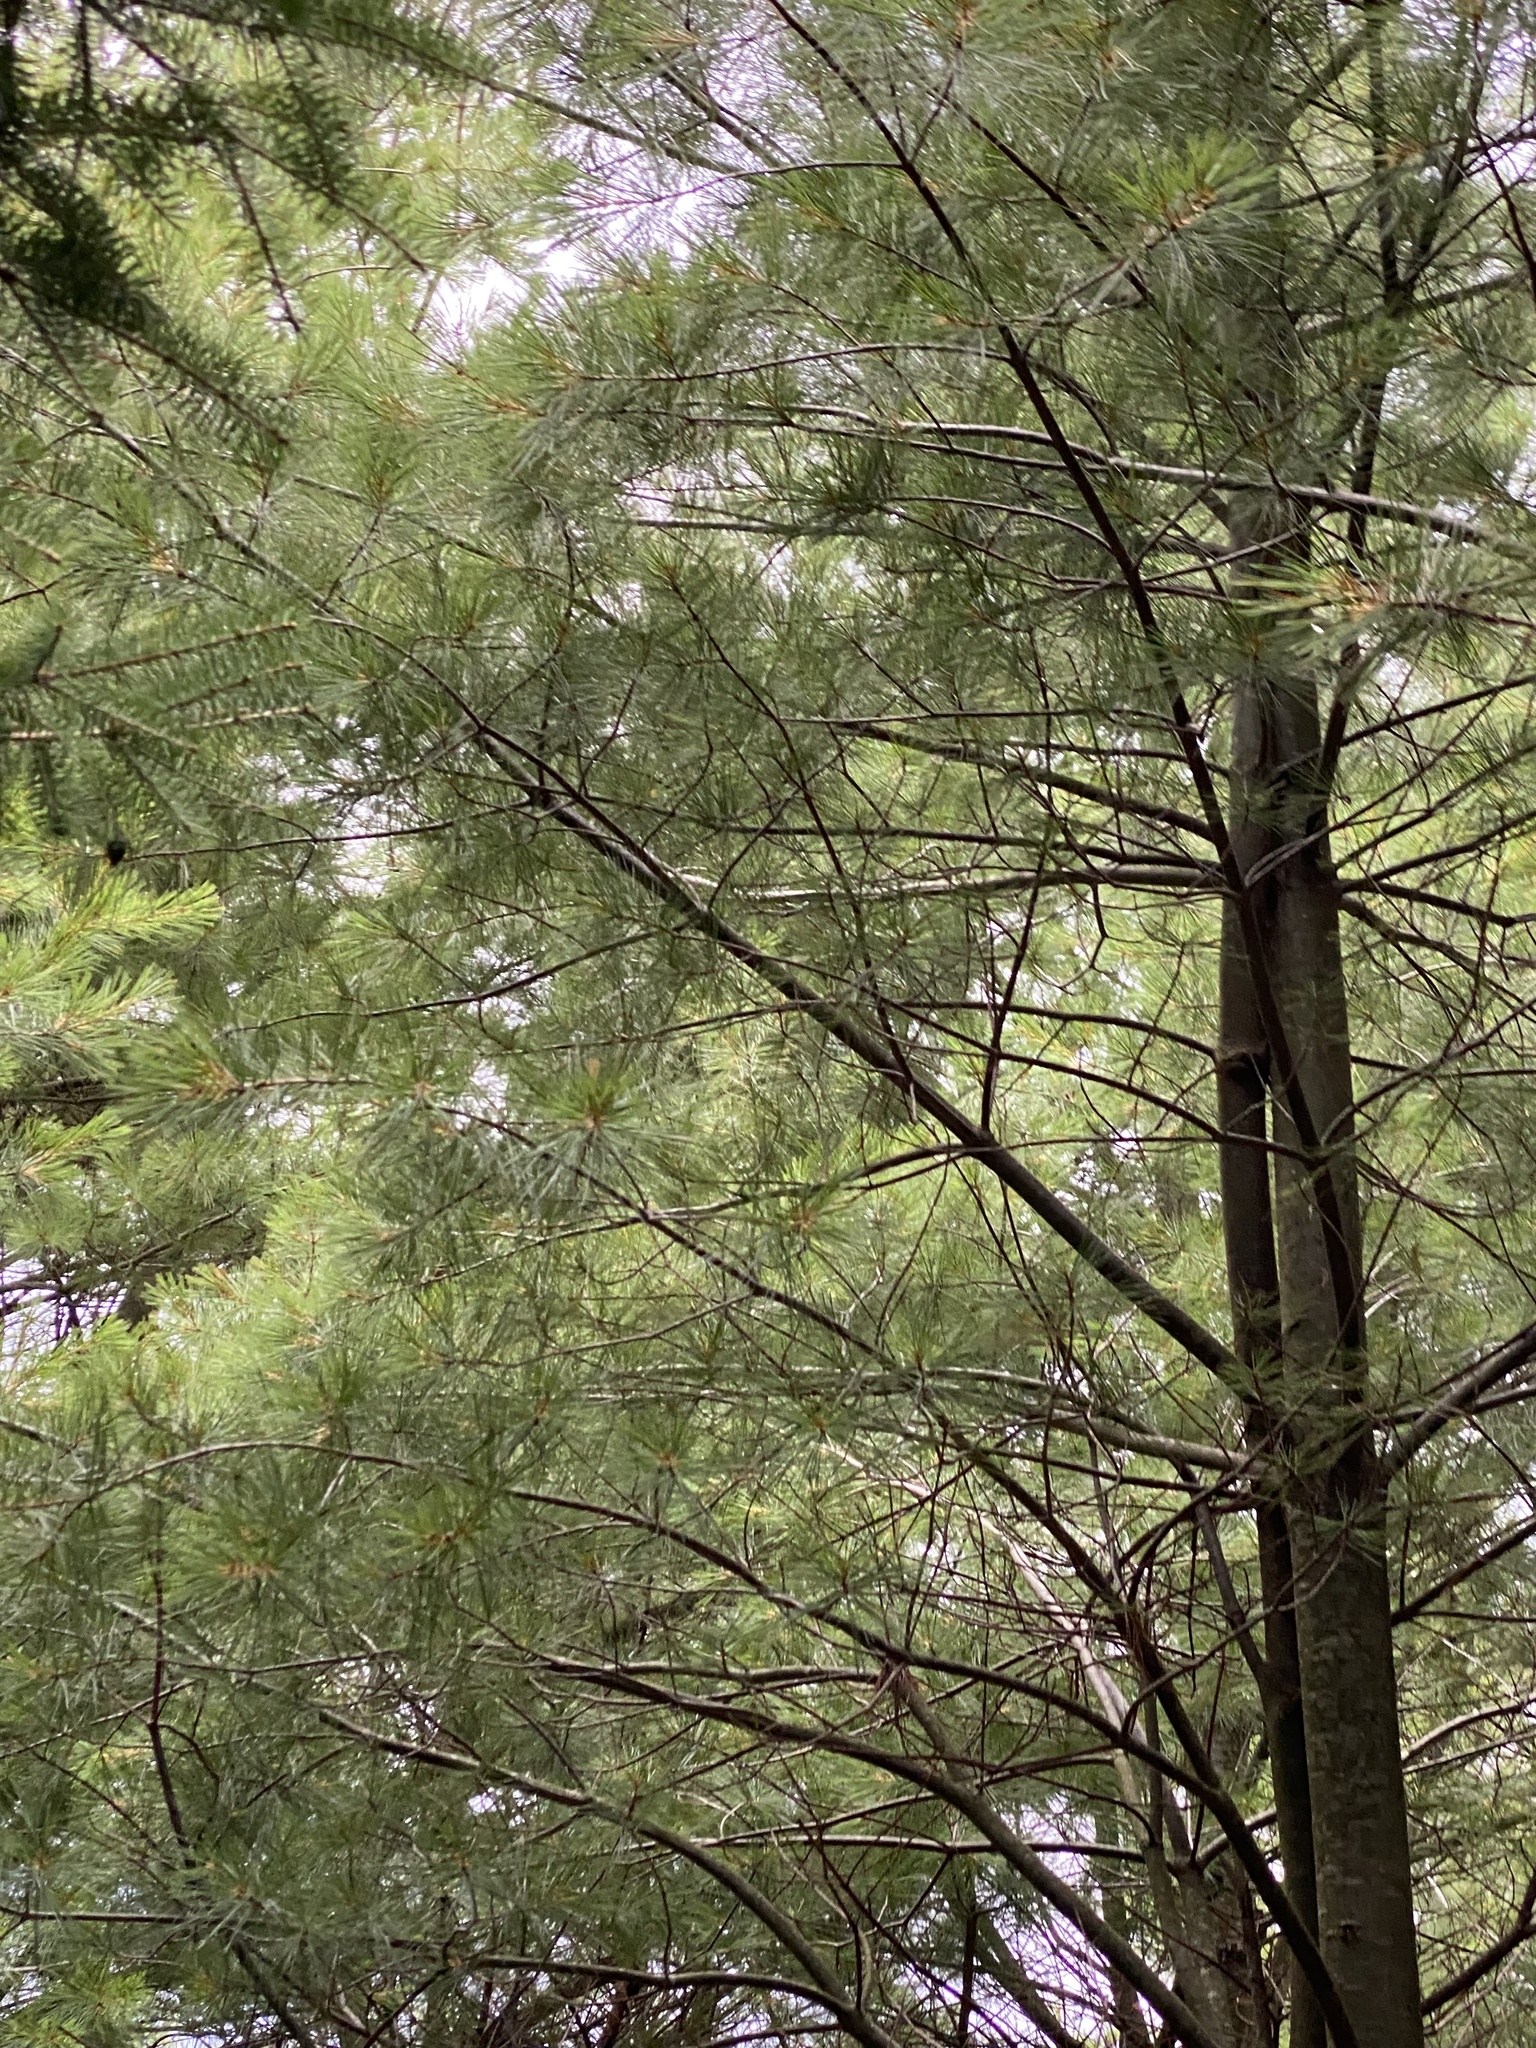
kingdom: Plantae
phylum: Tracheophyta
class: Pinopsida
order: Pinales
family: Pinaceae
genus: Pinus
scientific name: Pinus strobus
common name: Weymouth pine
